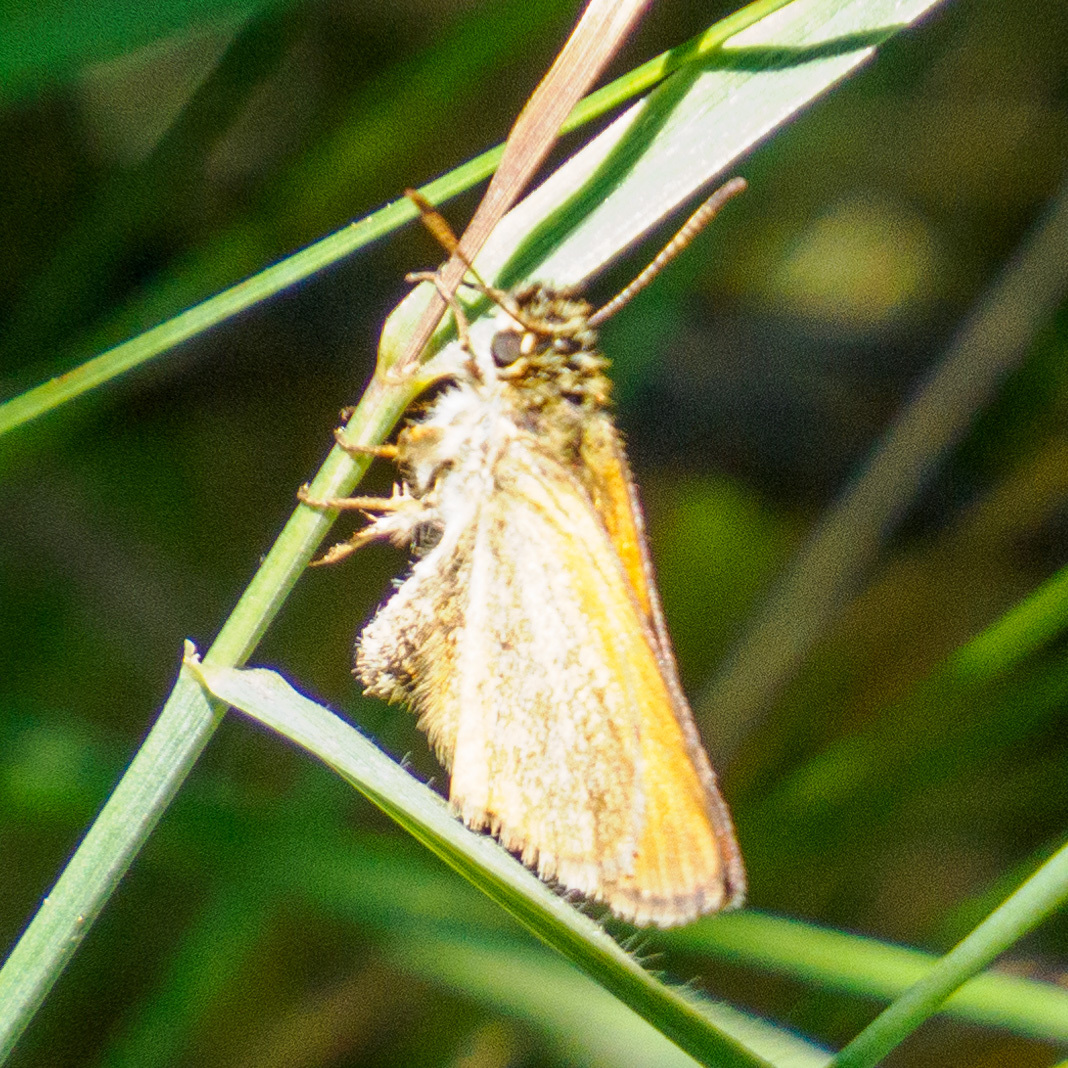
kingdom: Animalia
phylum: Arthropoda
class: Insecta
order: Lepidoptera
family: Hesperiidae
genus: Thymelicus
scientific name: Thymelicus lineola
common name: Essex skipper
